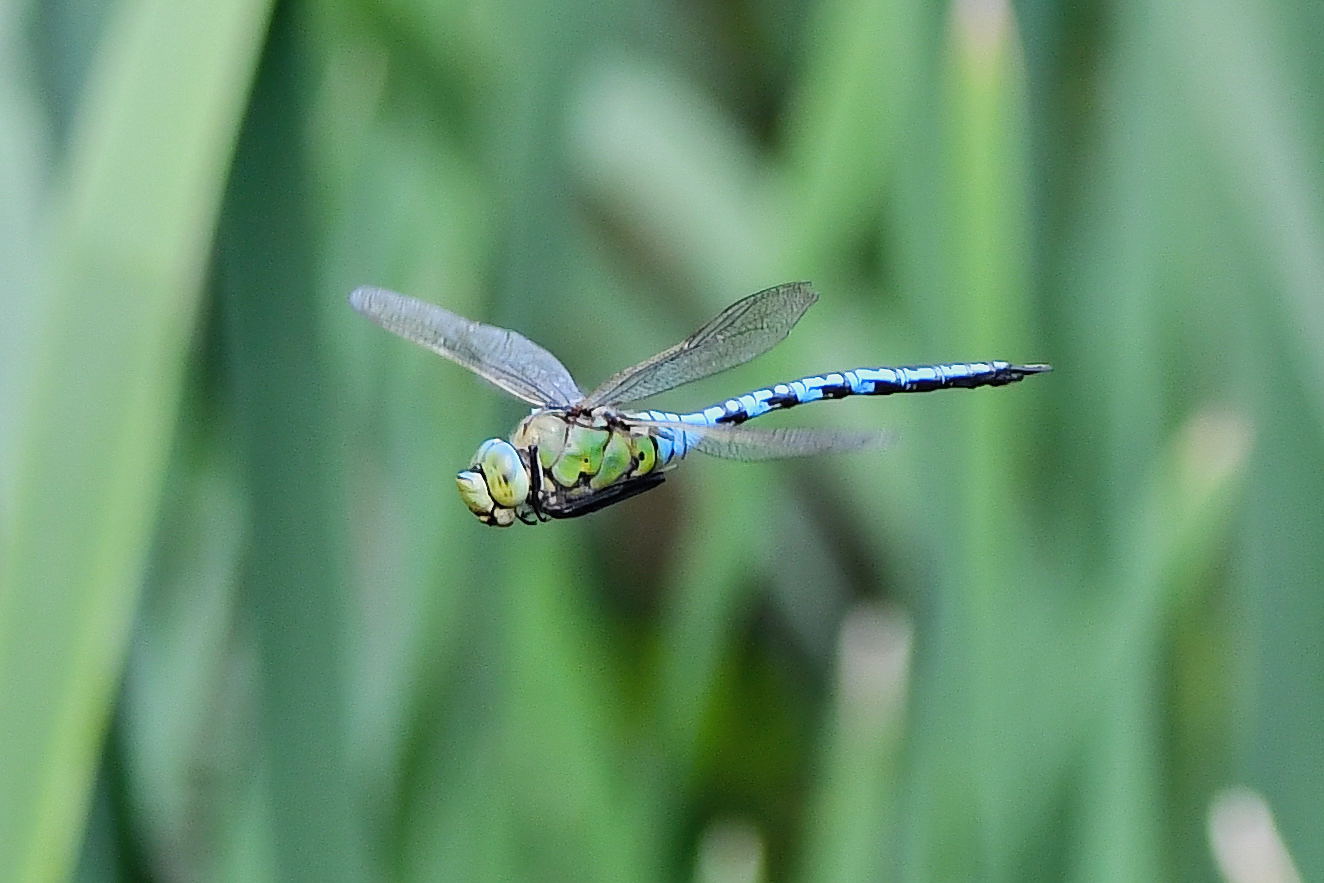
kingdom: Animalia
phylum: Arthropoda
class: Insecta
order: Odonata
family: Aeshnidae
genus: Anax
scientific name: Anax imperator
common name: Emperor dragonfly
